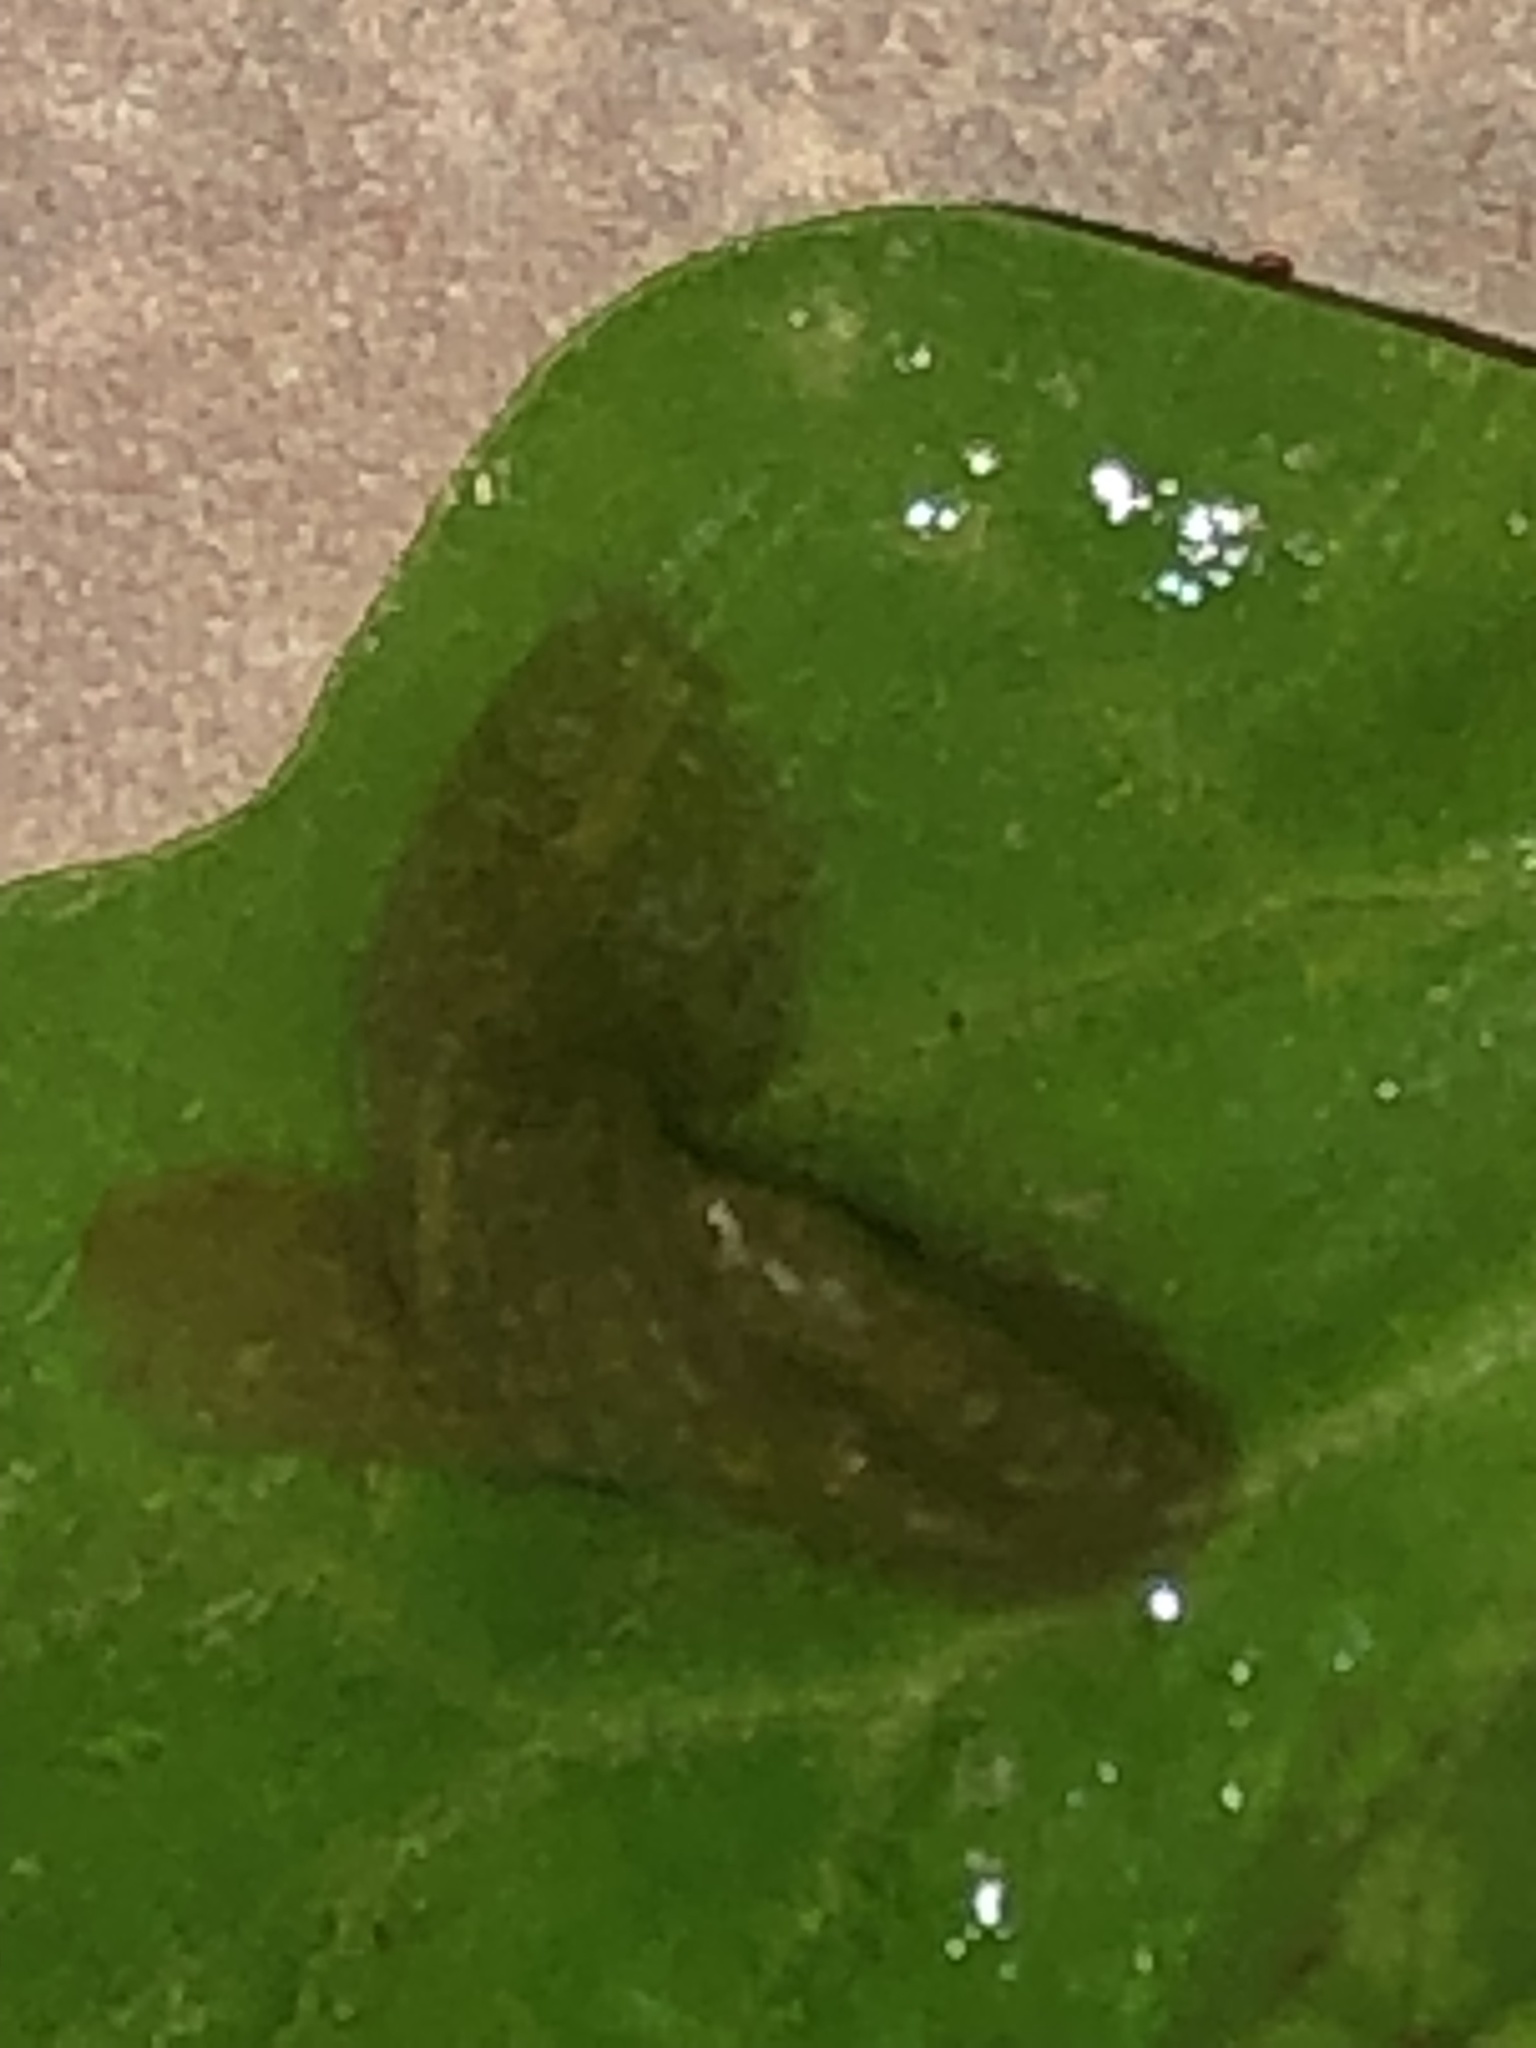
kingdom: Animalia
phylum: Mollusca
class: Gastropoda
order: Stylommatophora
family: Milacidae
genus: Milax
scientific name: Milax gagates
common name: Greenhouse slug
